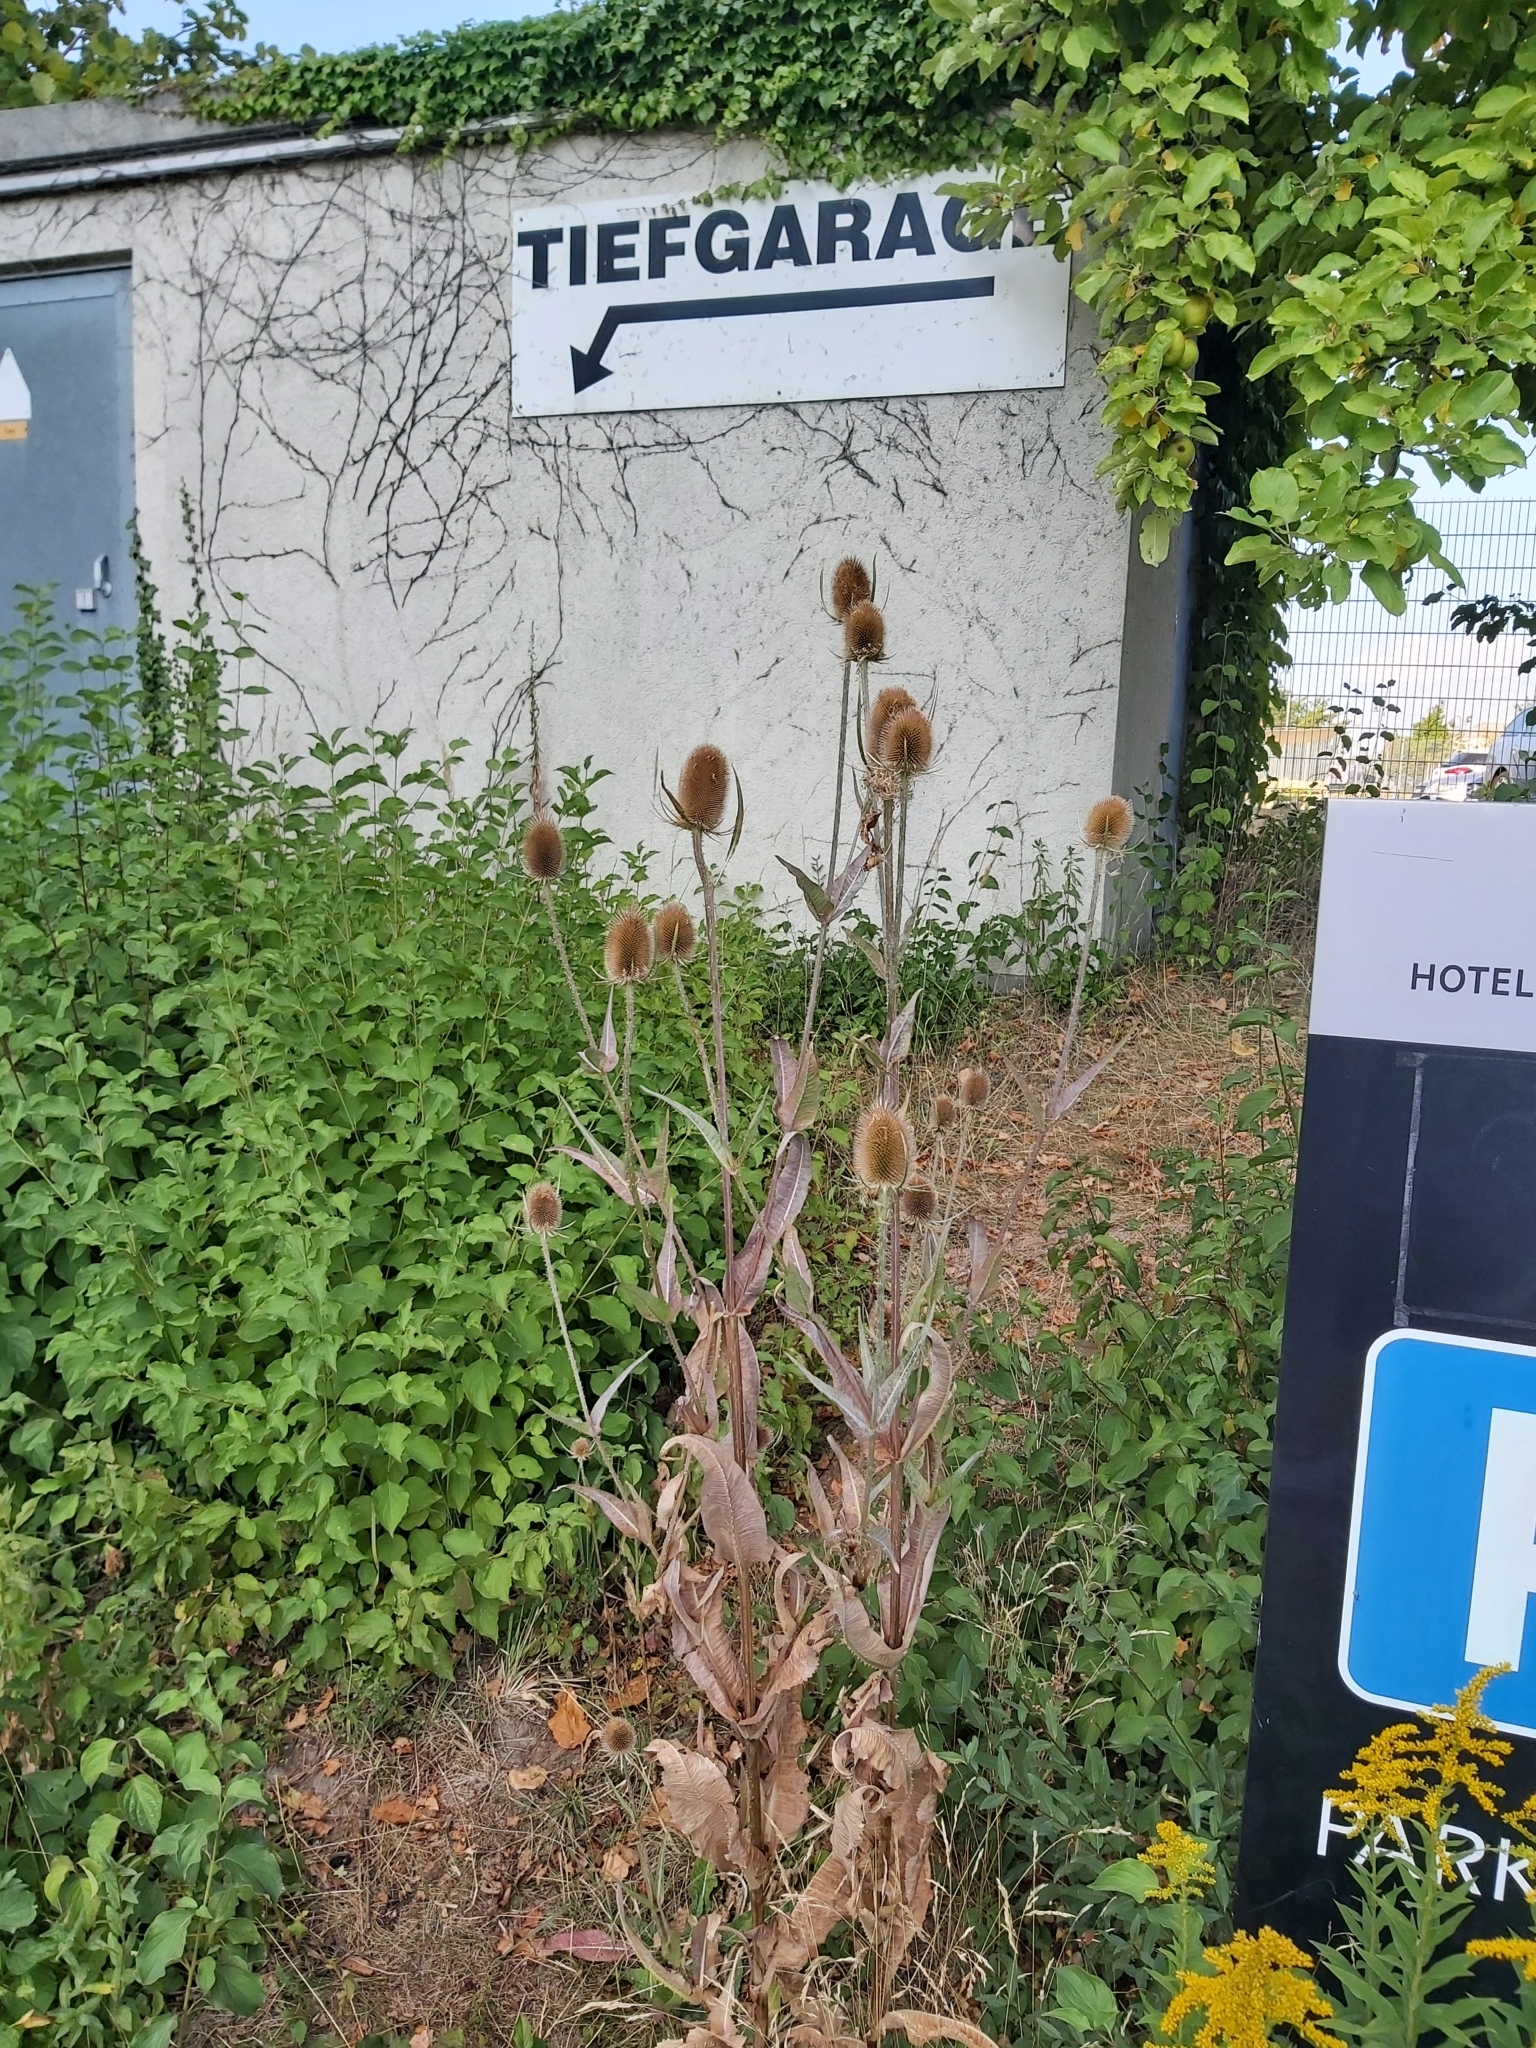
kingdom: Plantae
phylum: Tracheophyta
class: Magnoliopsida
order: Dipsacales
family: Caprifoliaceae
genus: Dipsacus
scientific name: Dipsacus fullonum
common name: Teasel
